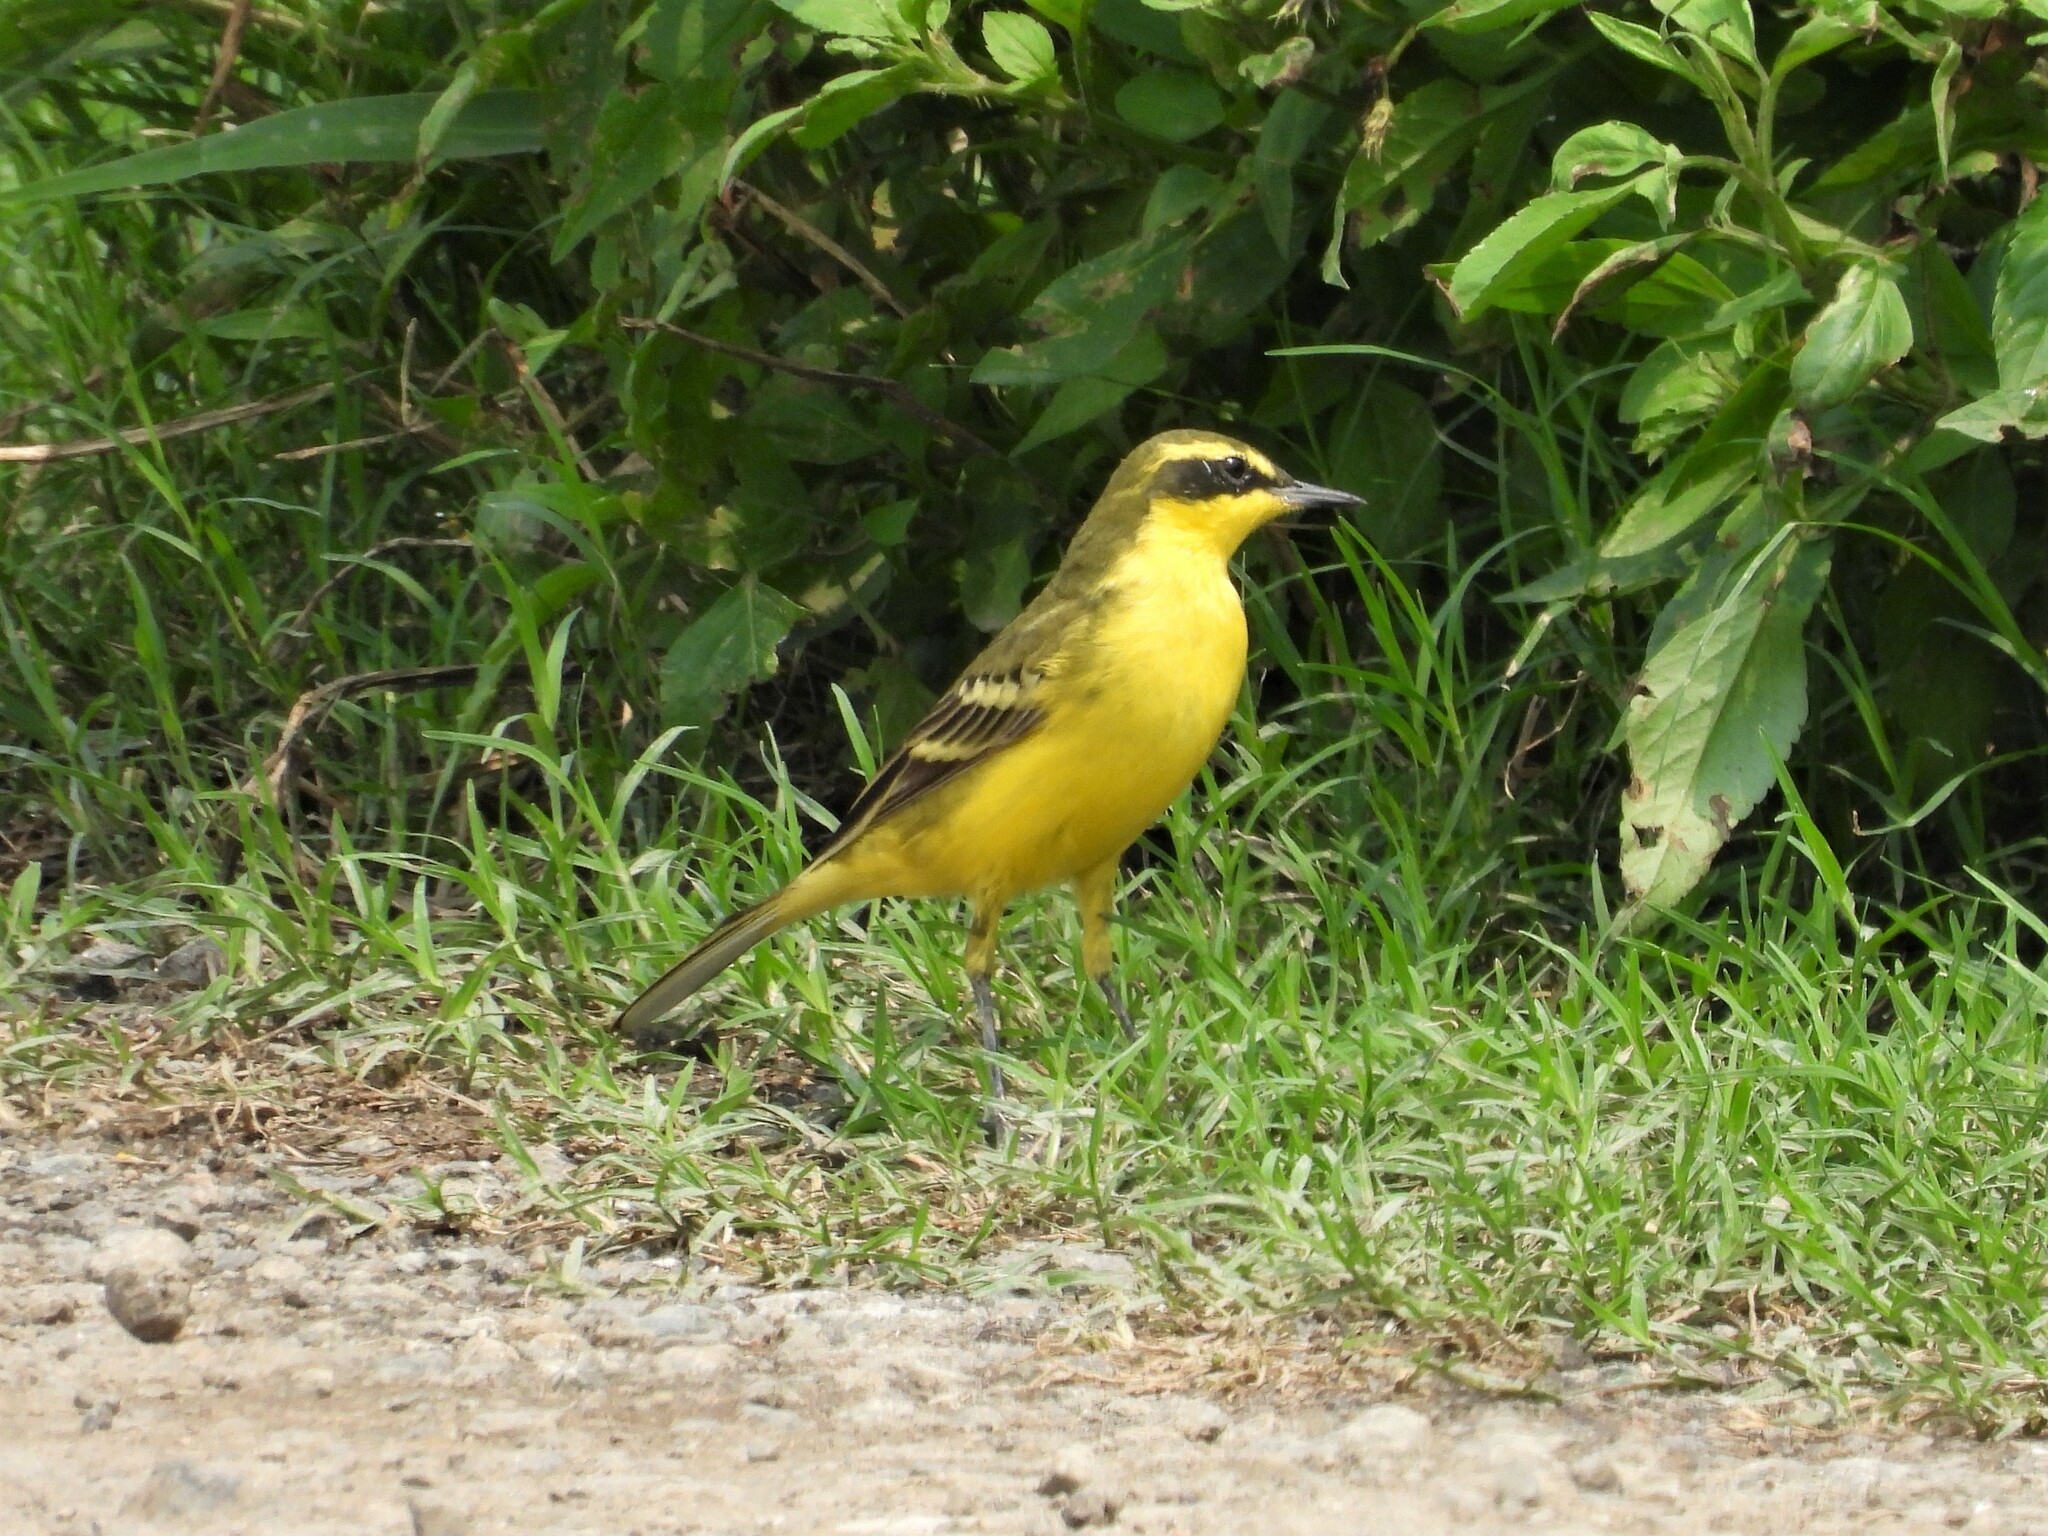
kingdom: Animalia
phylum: Chordata
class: Aves
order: Passeriformes
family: Motacillidae
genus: Motacilla
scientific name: Motacilla tschutschensis
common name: Eastern yellow wagtail
